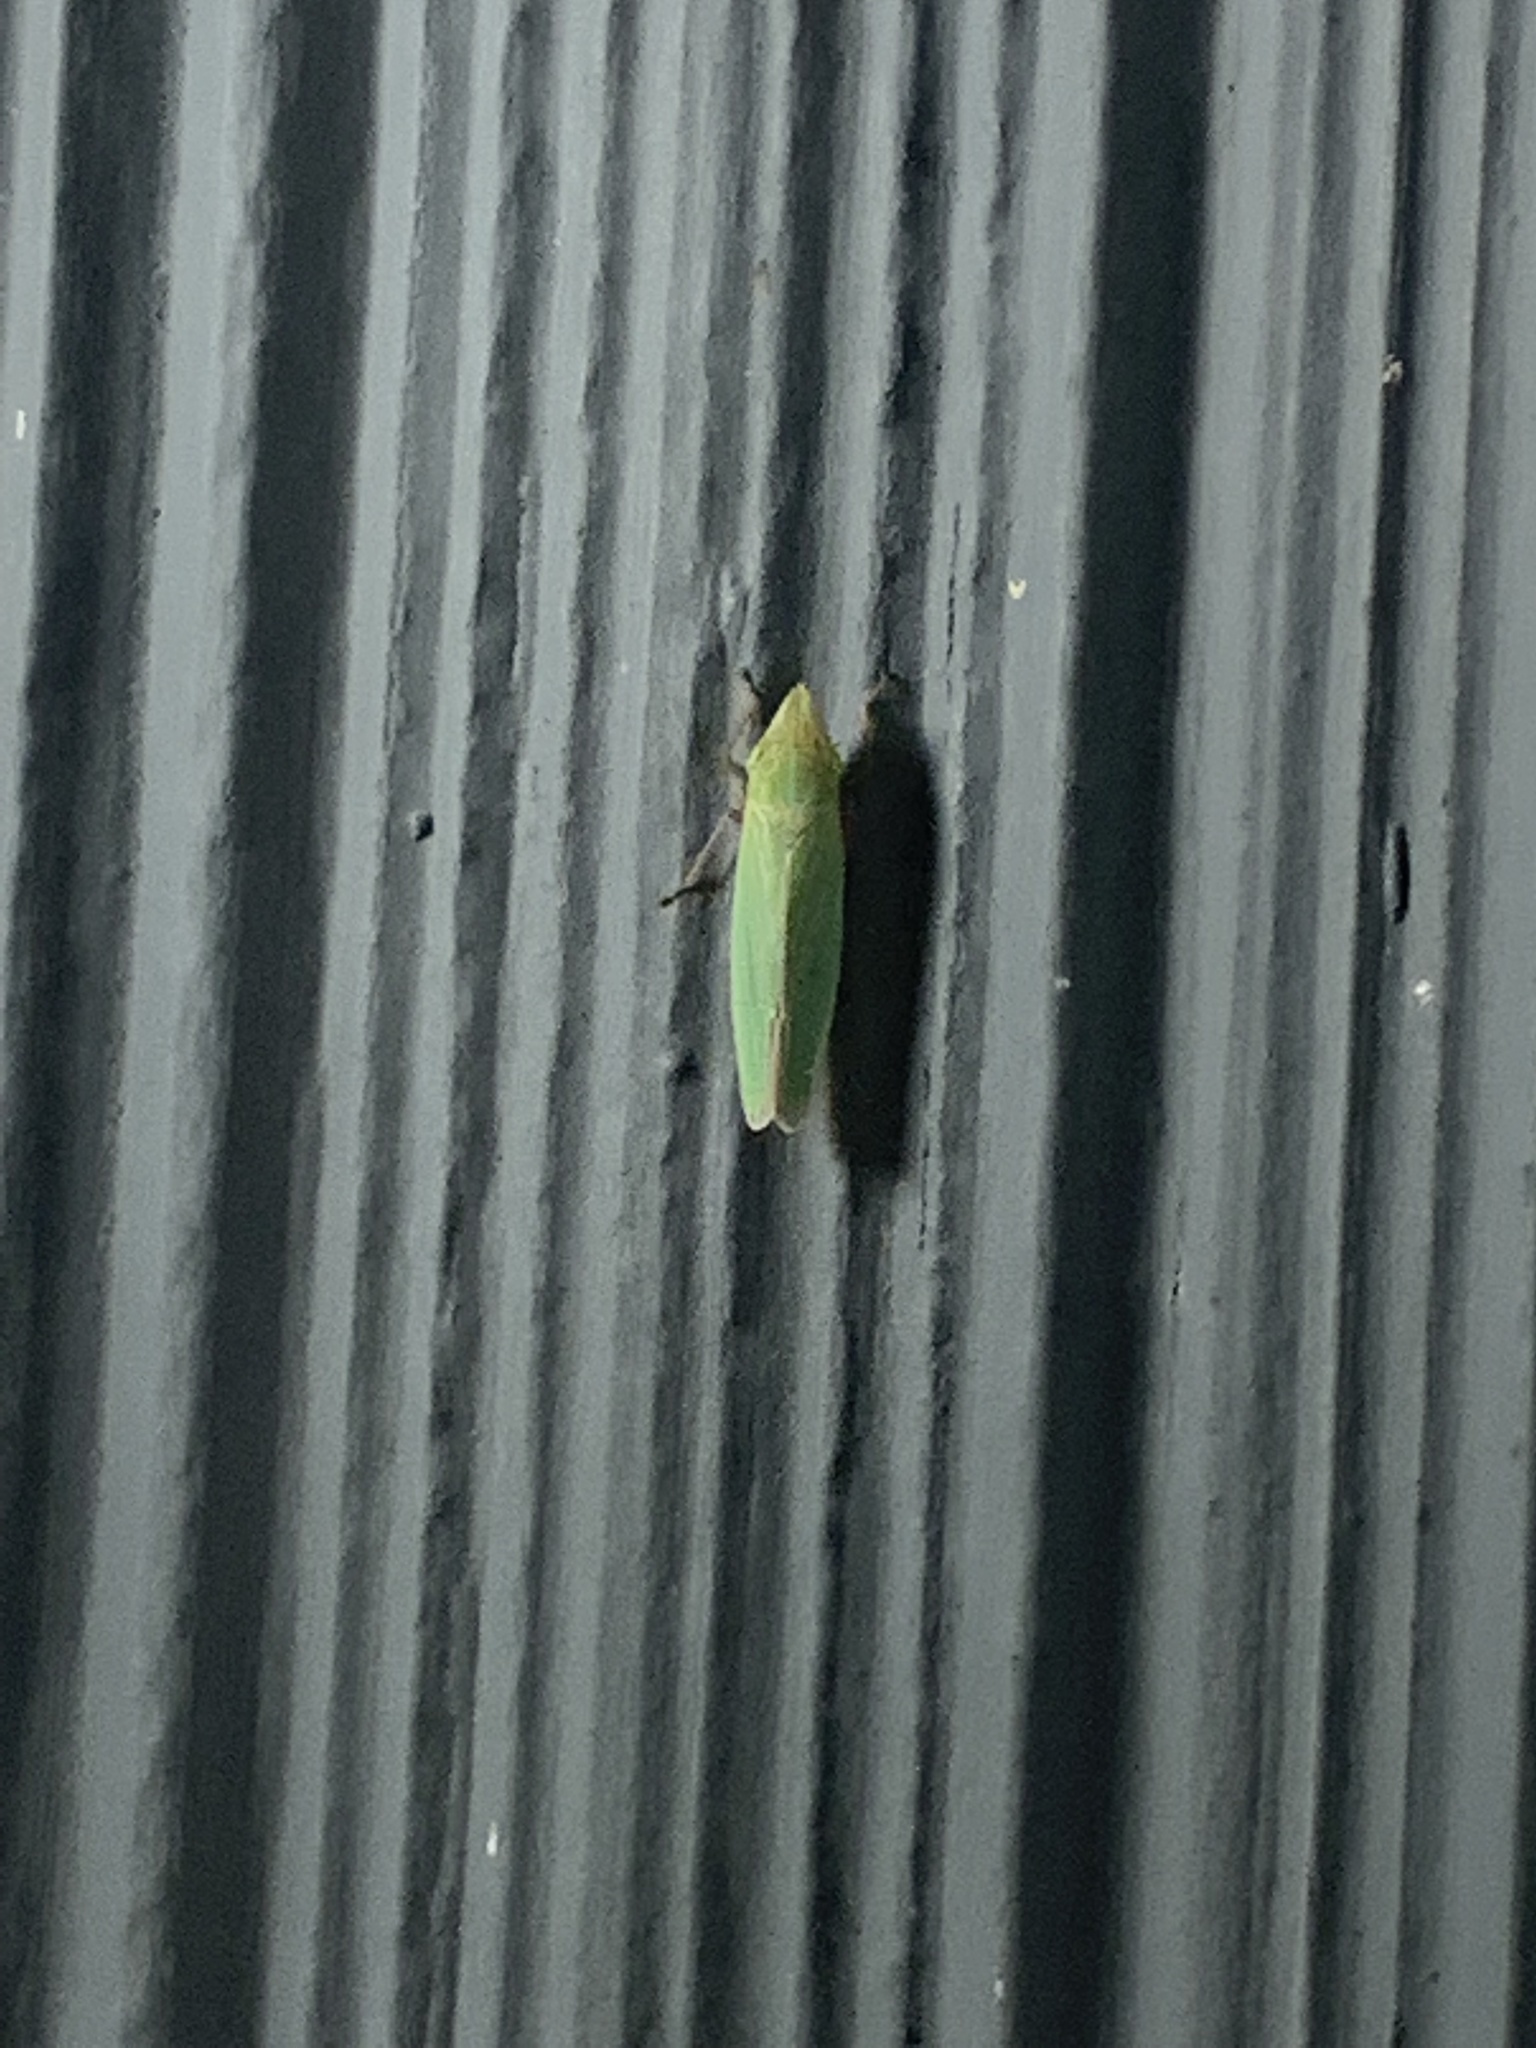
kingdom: Animalia
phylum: Arthropoda
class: Insecta
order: Hemiptera
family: Cicadellidae
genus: Draeculacephala
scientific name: Draeculacephala
